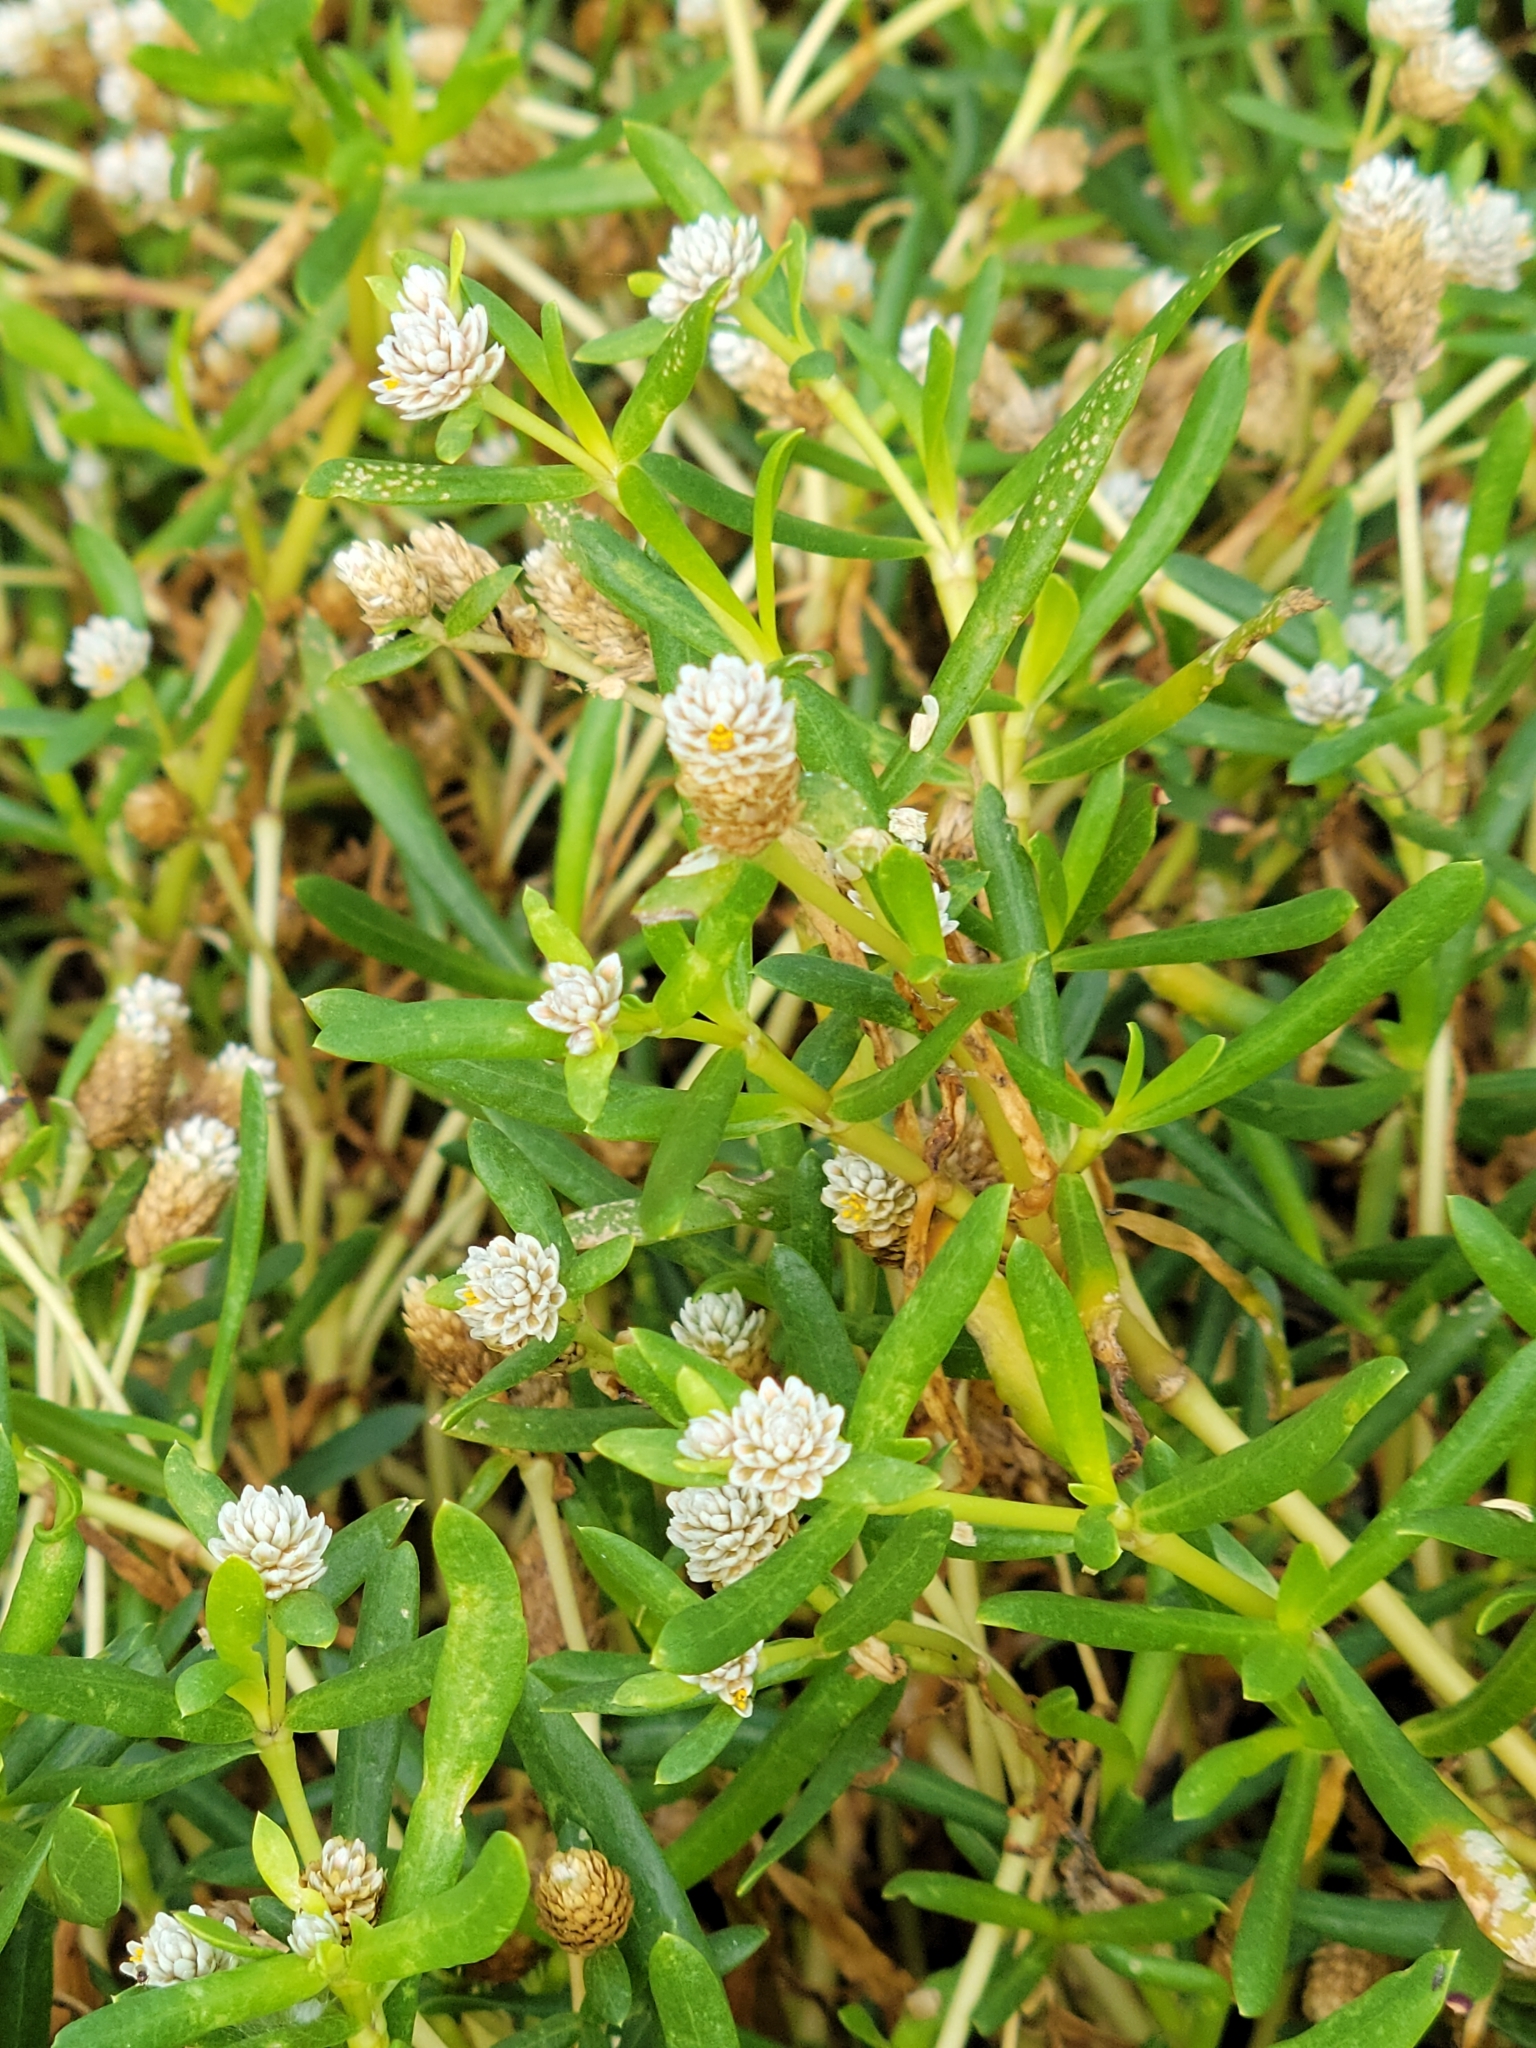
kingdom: Plantae
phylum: Tracheophyta
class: Magnoliopsida
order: Caryophyllales
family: Amaranthaceae
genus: Gomphrena
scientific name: Gomphrena vermicularis
